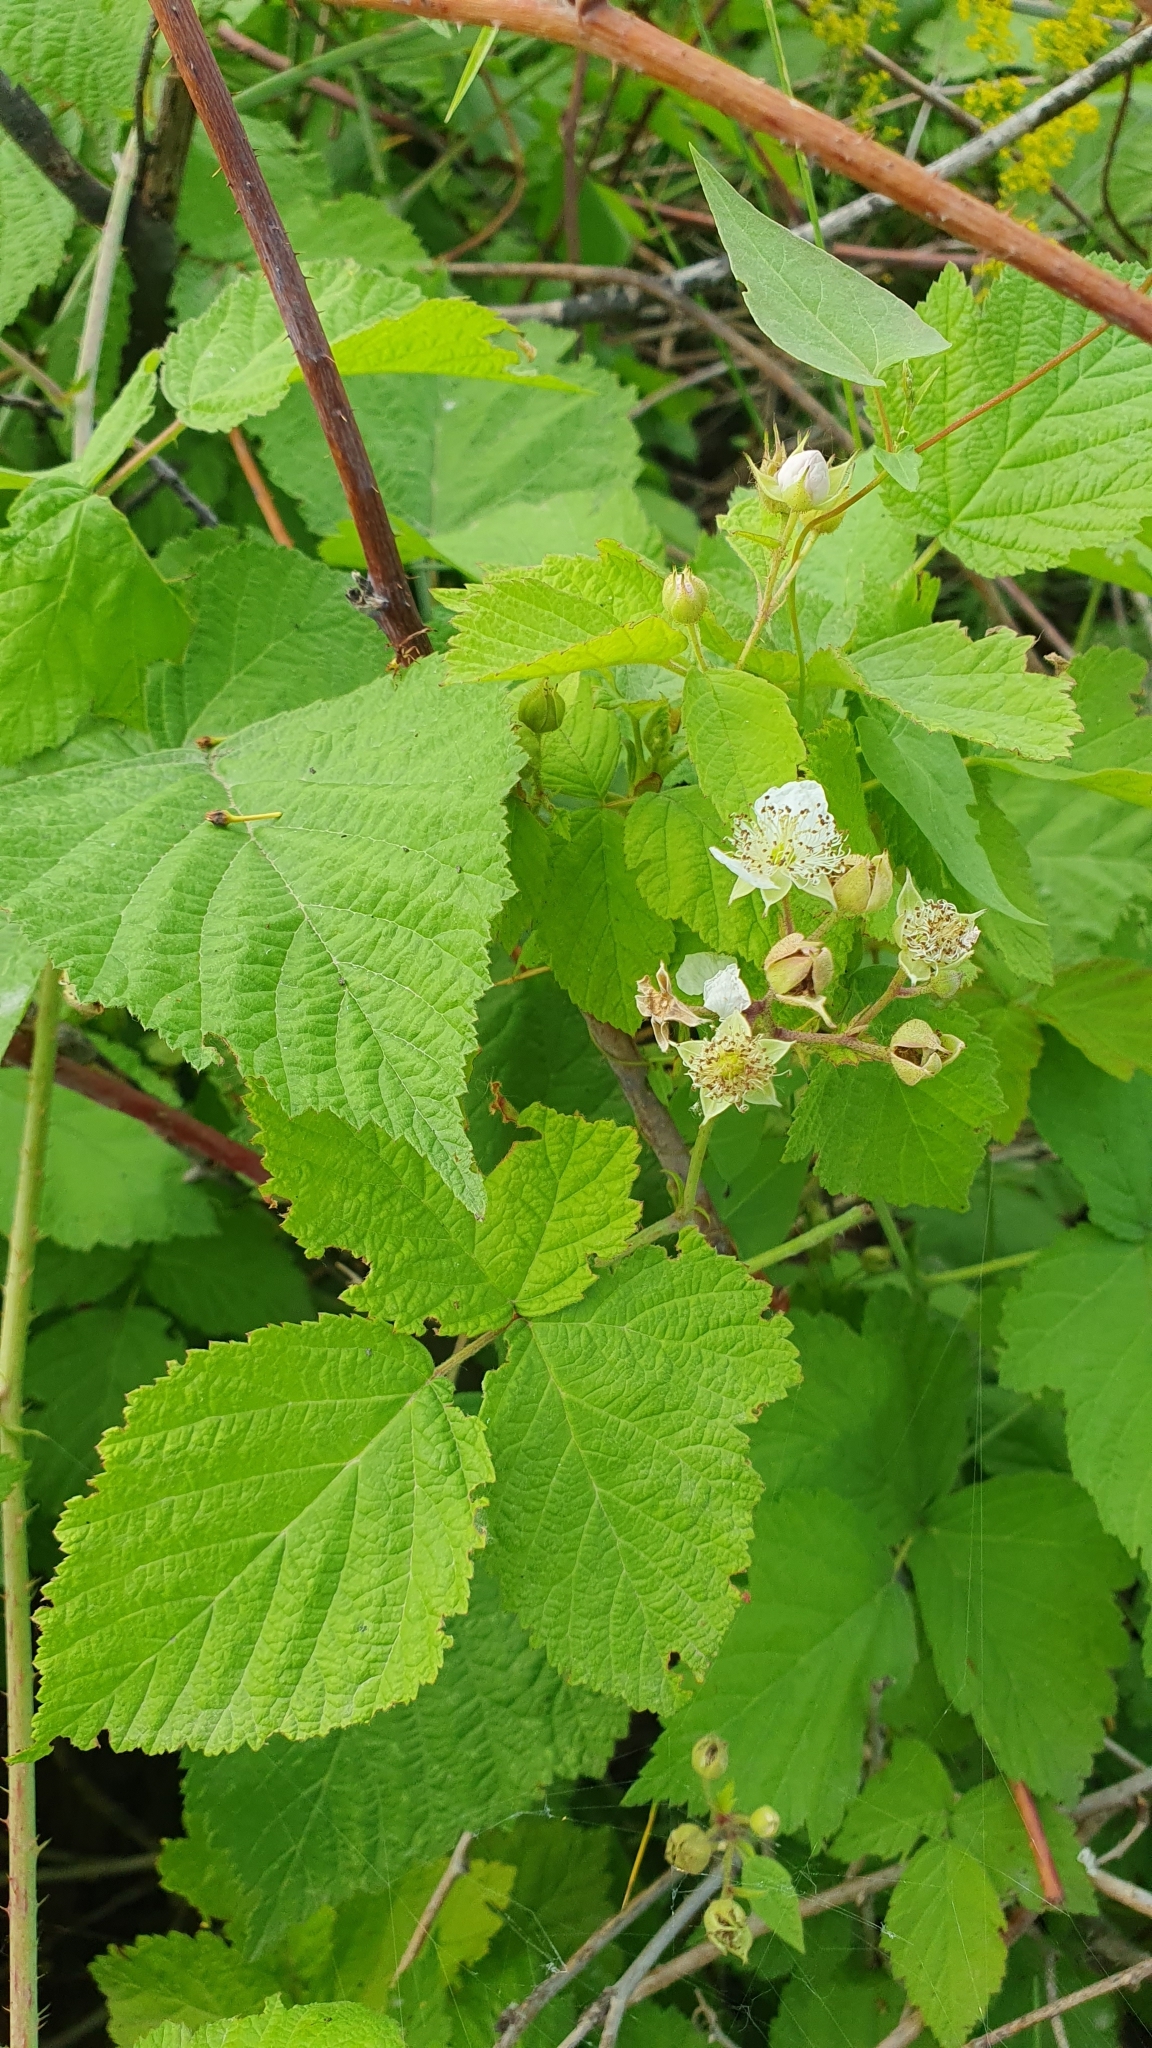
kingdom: Plantae
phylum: Tracheophyta
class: Magnoliopsida
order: Rosales
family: Rosaceae
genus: Rubus
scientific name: Rubus caesius
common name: Dewberry
